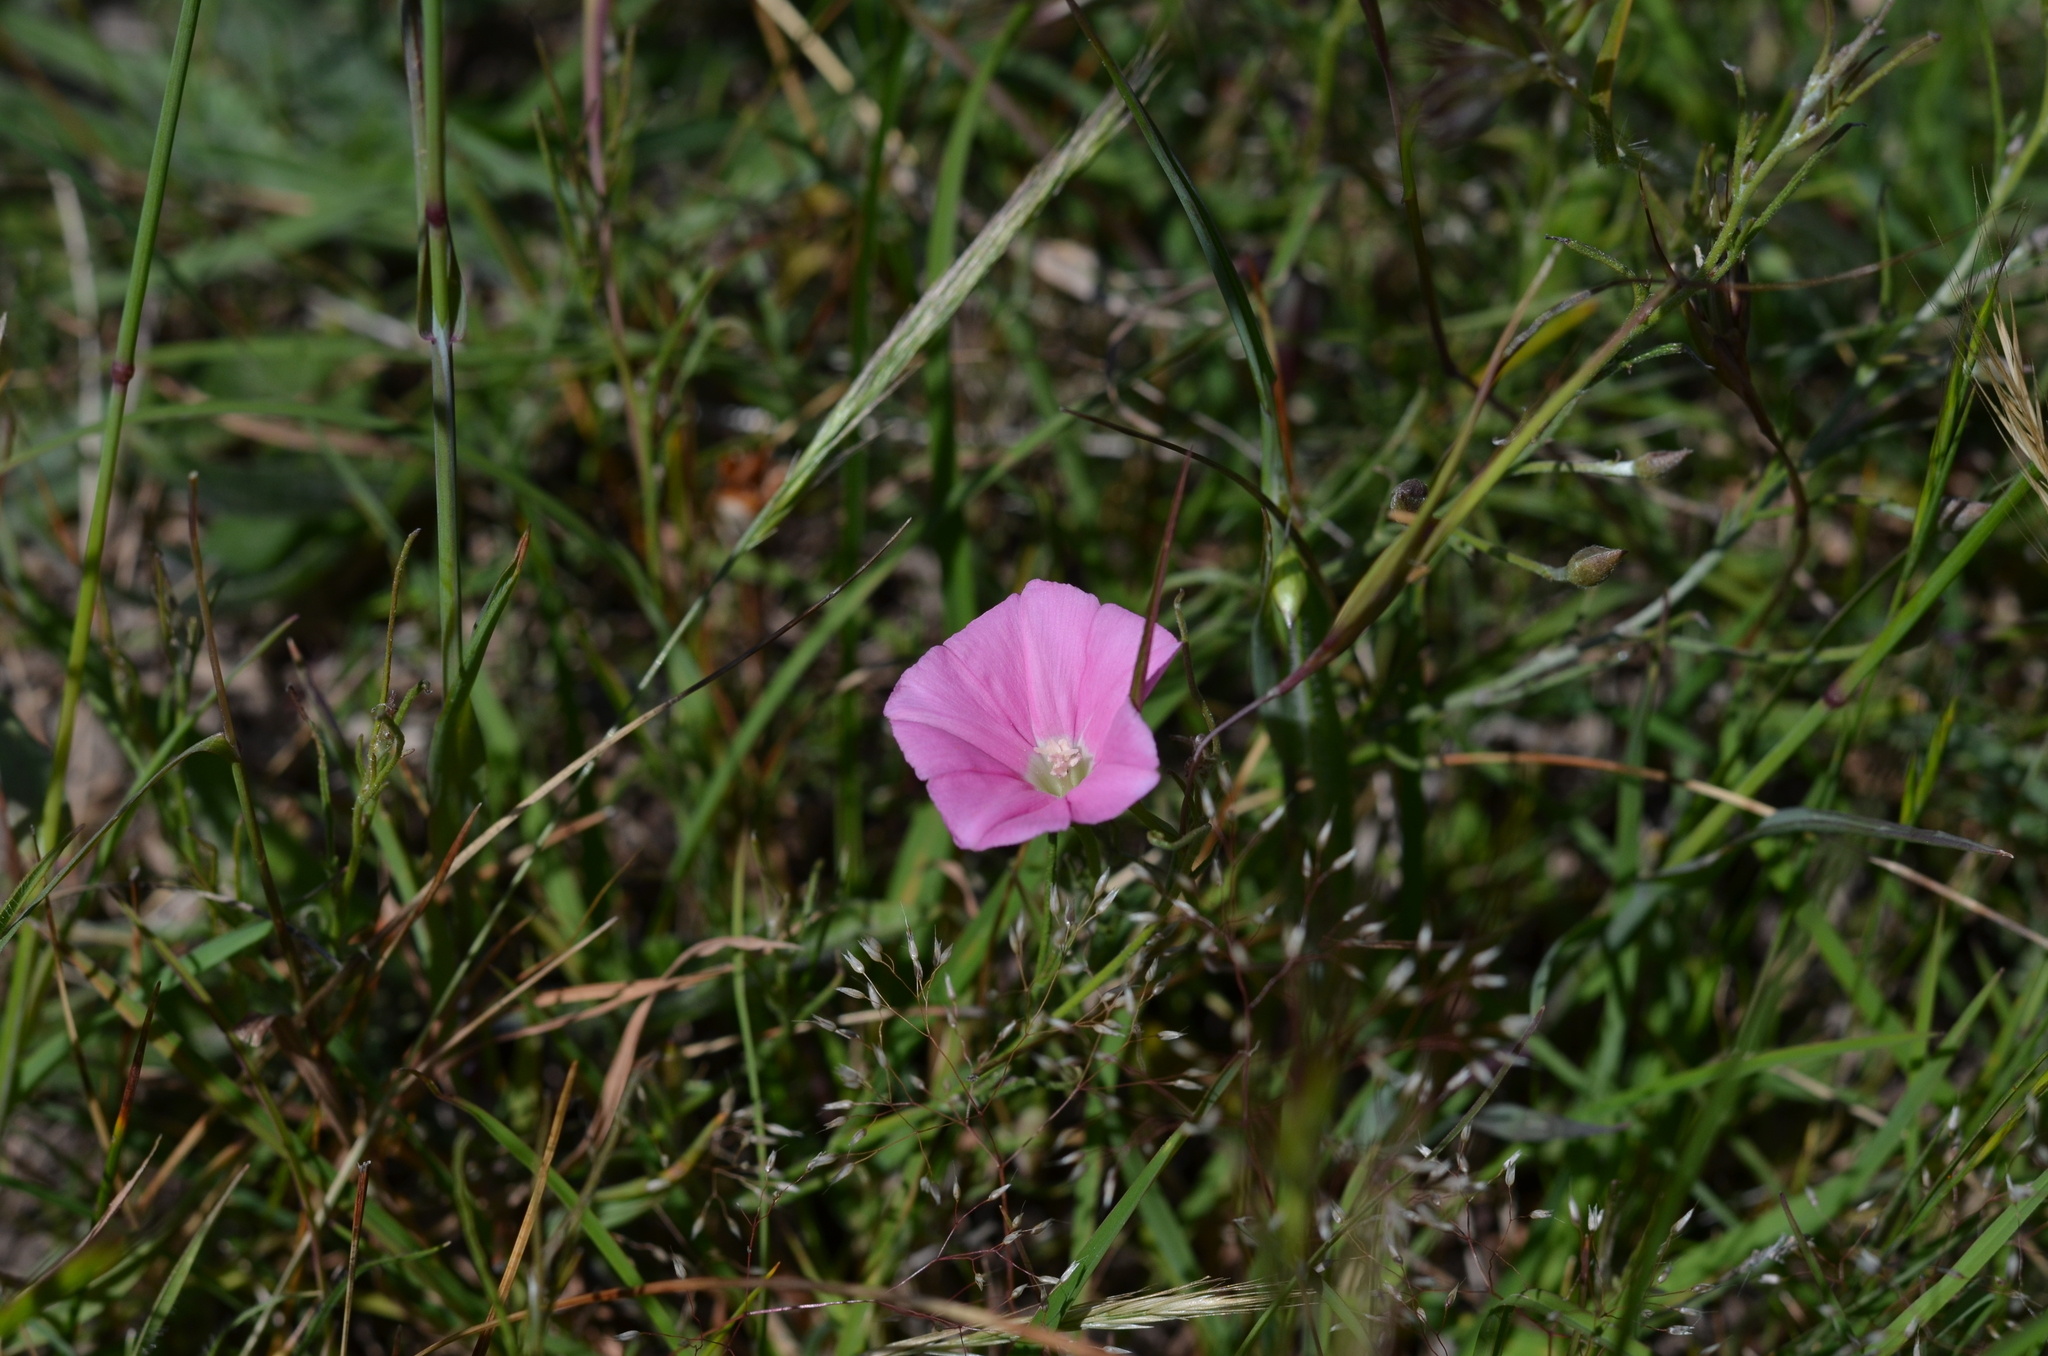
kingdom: Plantae
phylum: Tracheophyta
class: Magnoliopsida
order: Solanales
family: Convolvulaceae
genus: Convolvulus
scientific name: Convolvulus angustissimus
